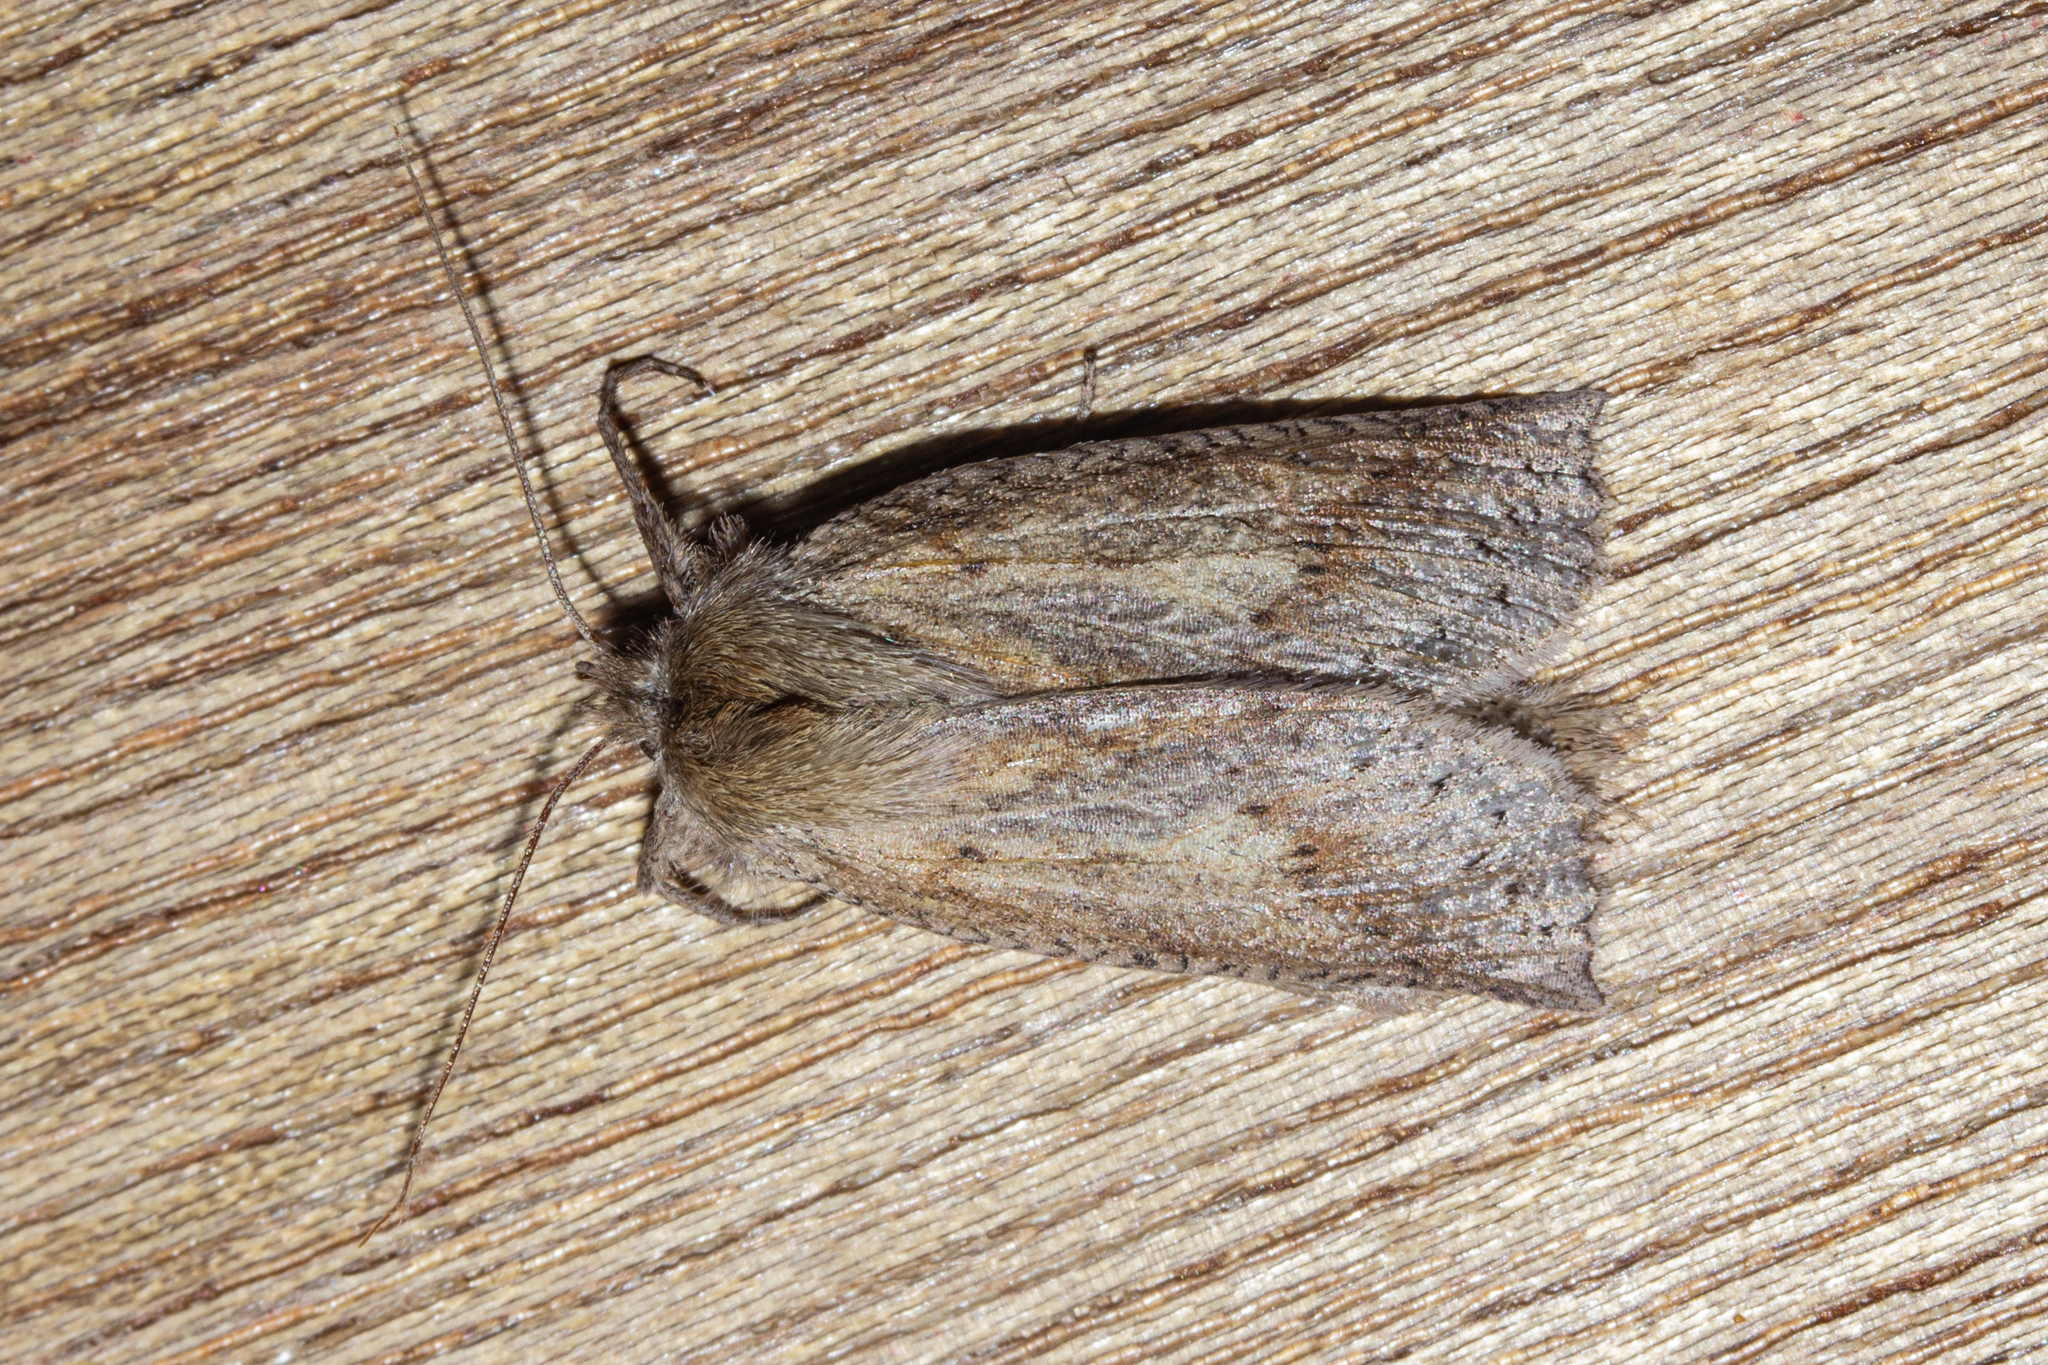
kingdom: Animalia
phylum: Arthropoda
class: Insecta
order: Lepidoptera
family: Geometridae
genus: Declana
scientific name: Declana leptomera
